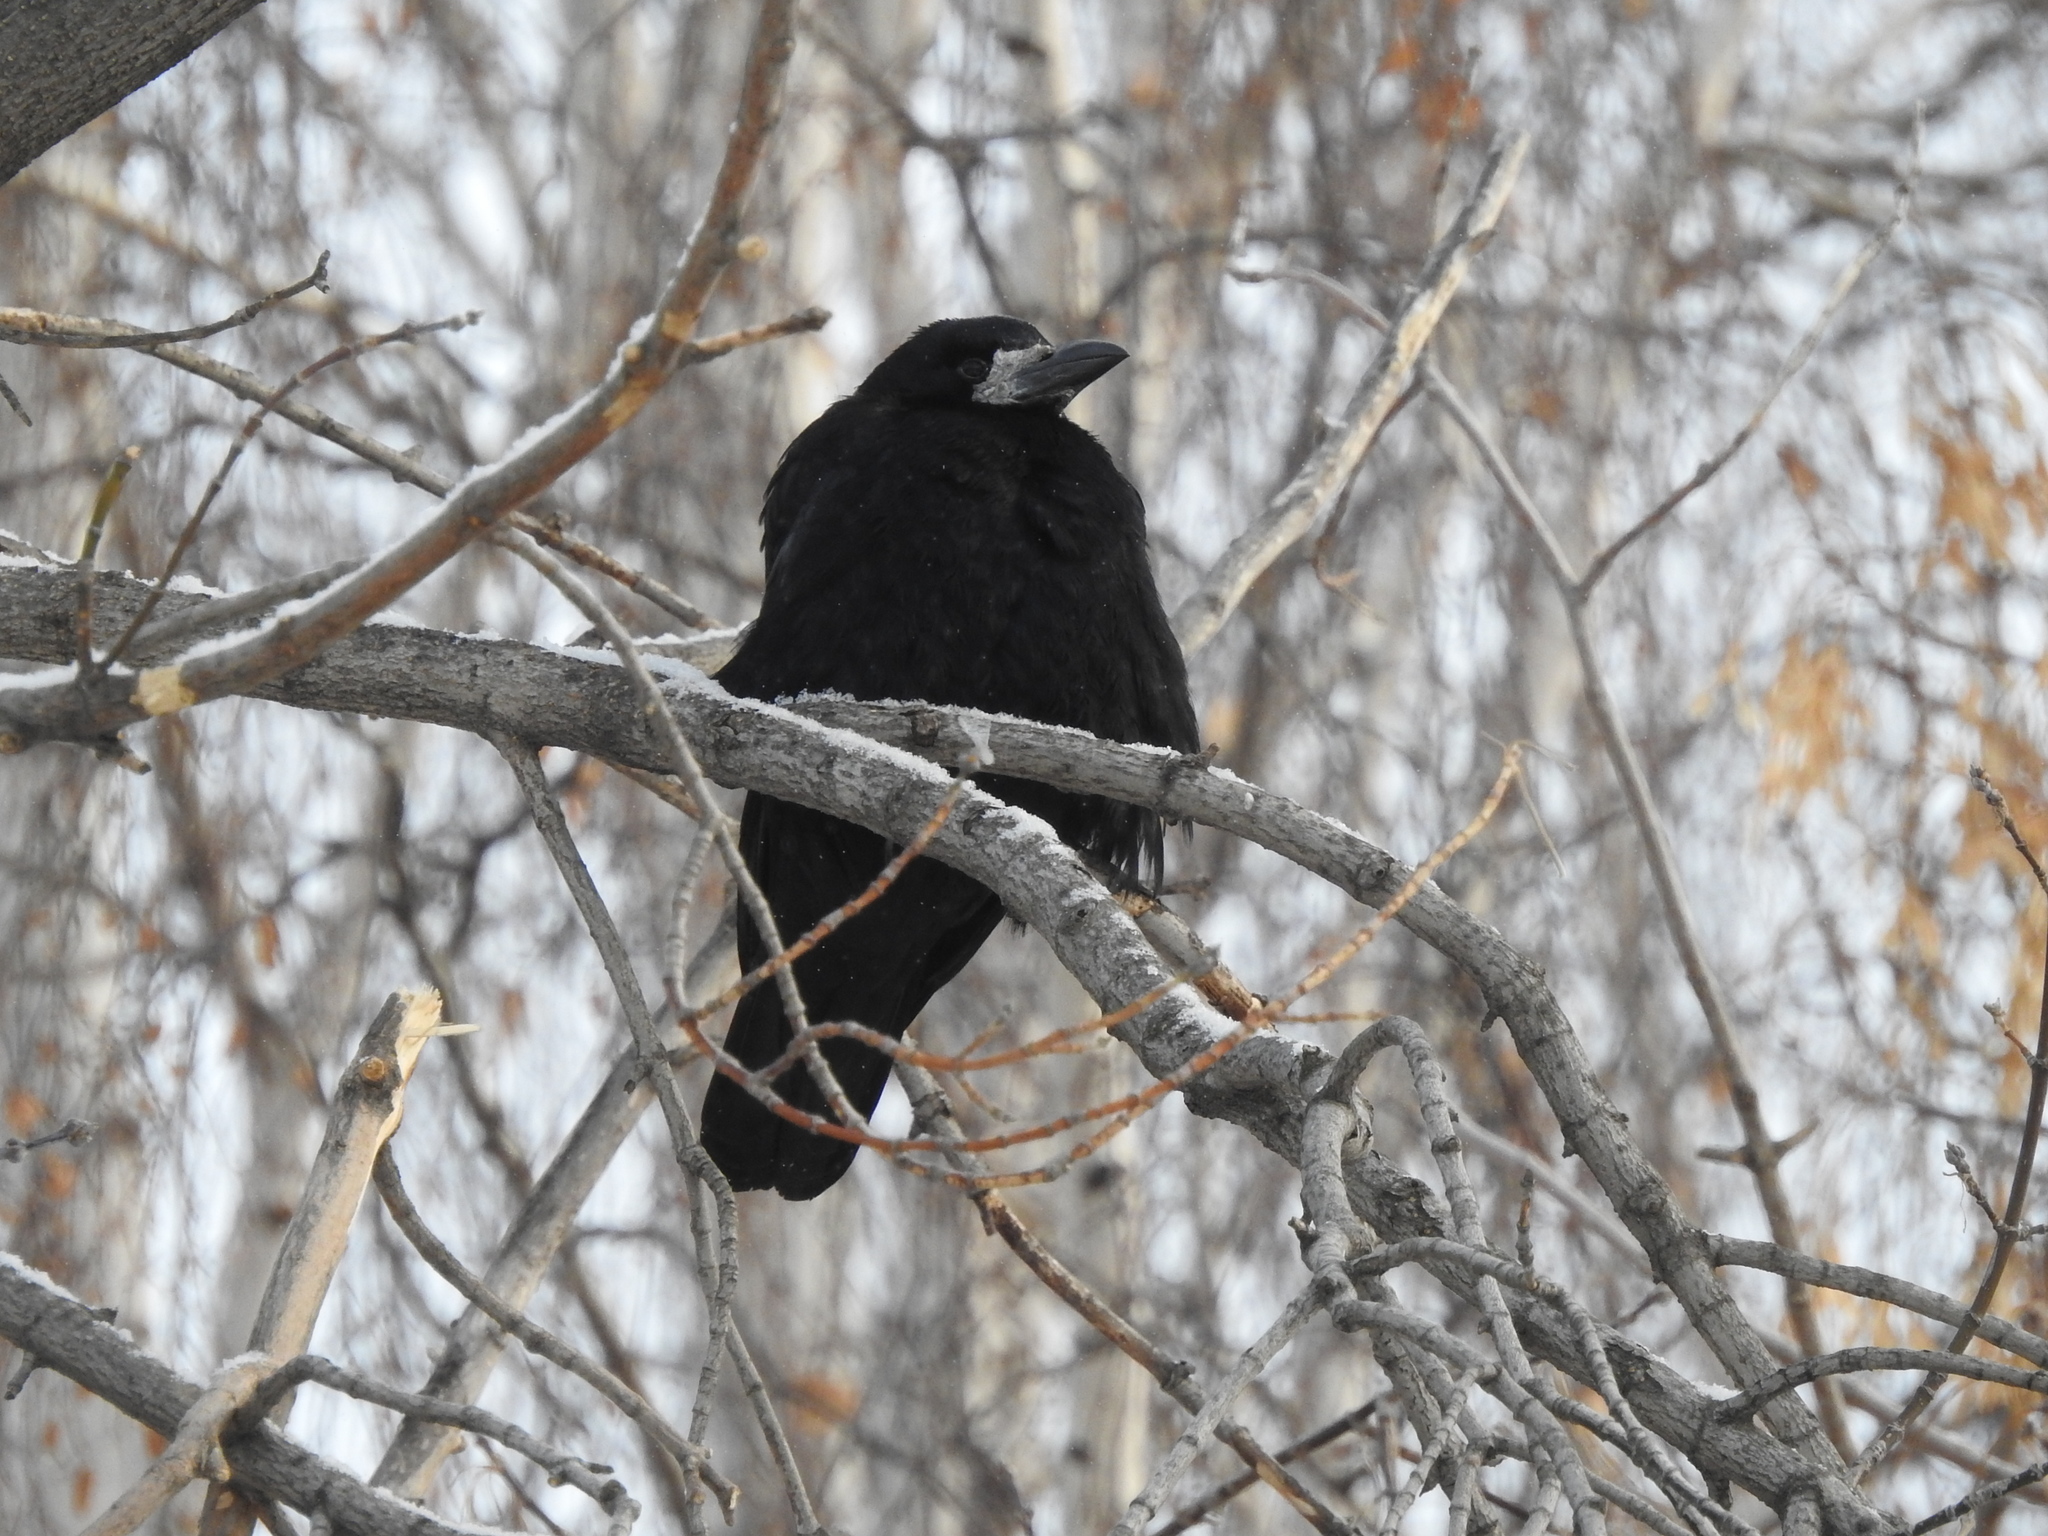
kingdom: Animalia
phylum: Chordata
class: Aves
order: Passeriformes
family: Corvidae
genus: Corvus
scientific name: Corvus frugilegus
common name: Rook
